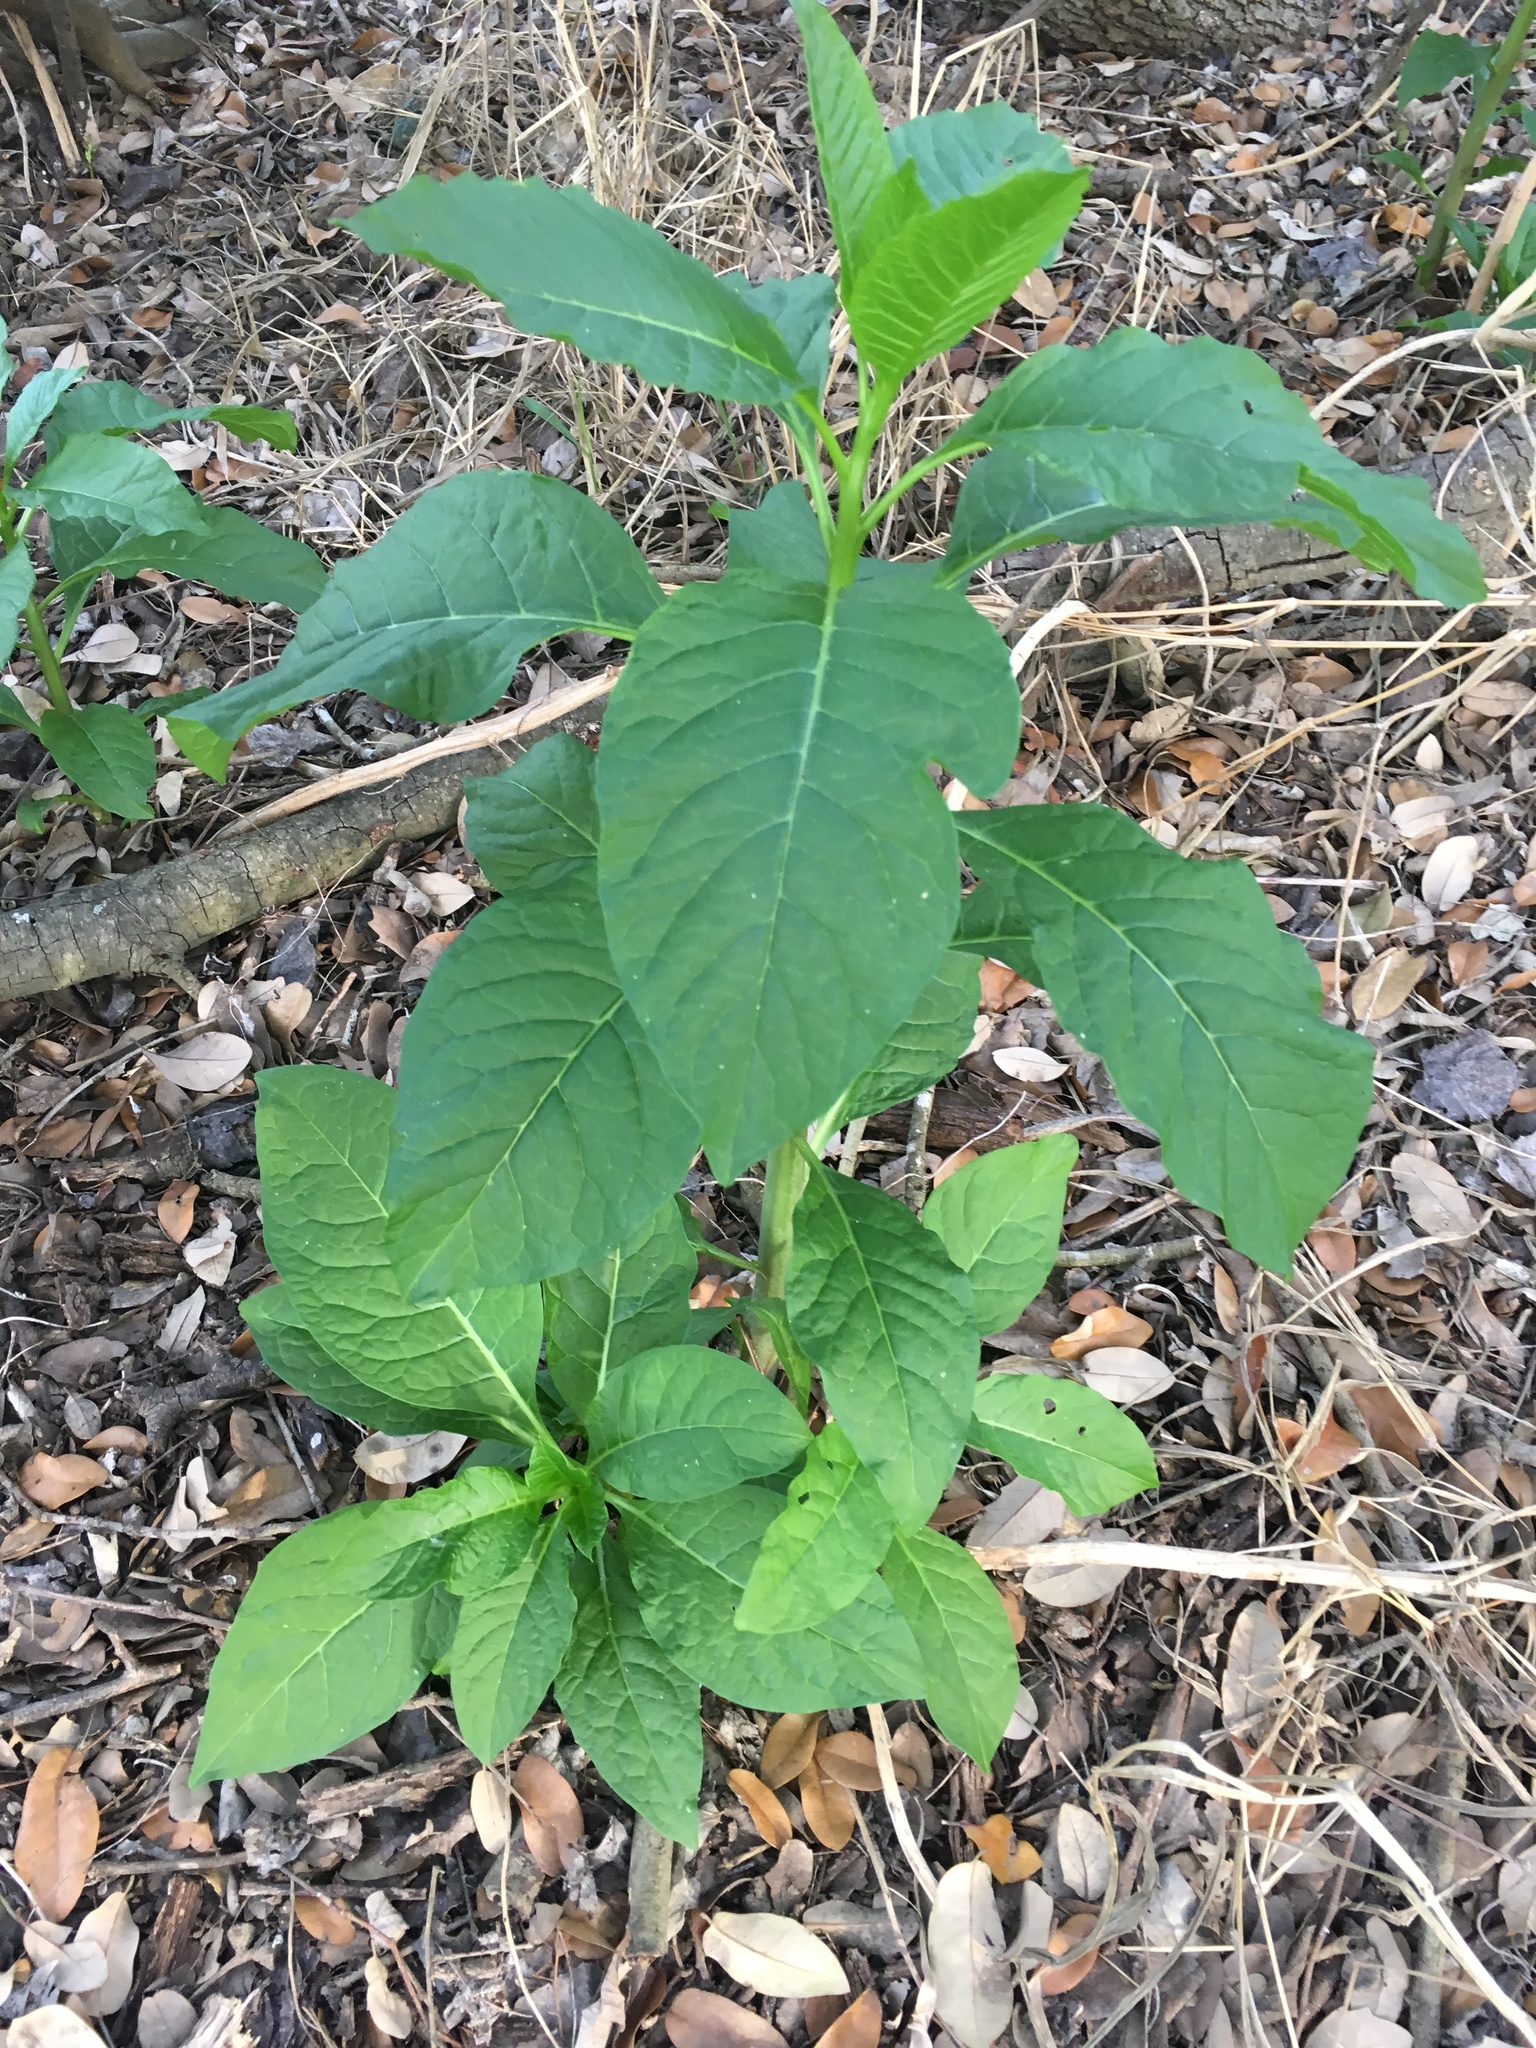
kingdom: Plantae
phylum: Tracheophyta
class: Magnoliopsida
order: Caryophyllales
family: Phytolaccaceae
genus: Phytolacca
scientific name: Phytolacca americana
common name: American pokeweed
